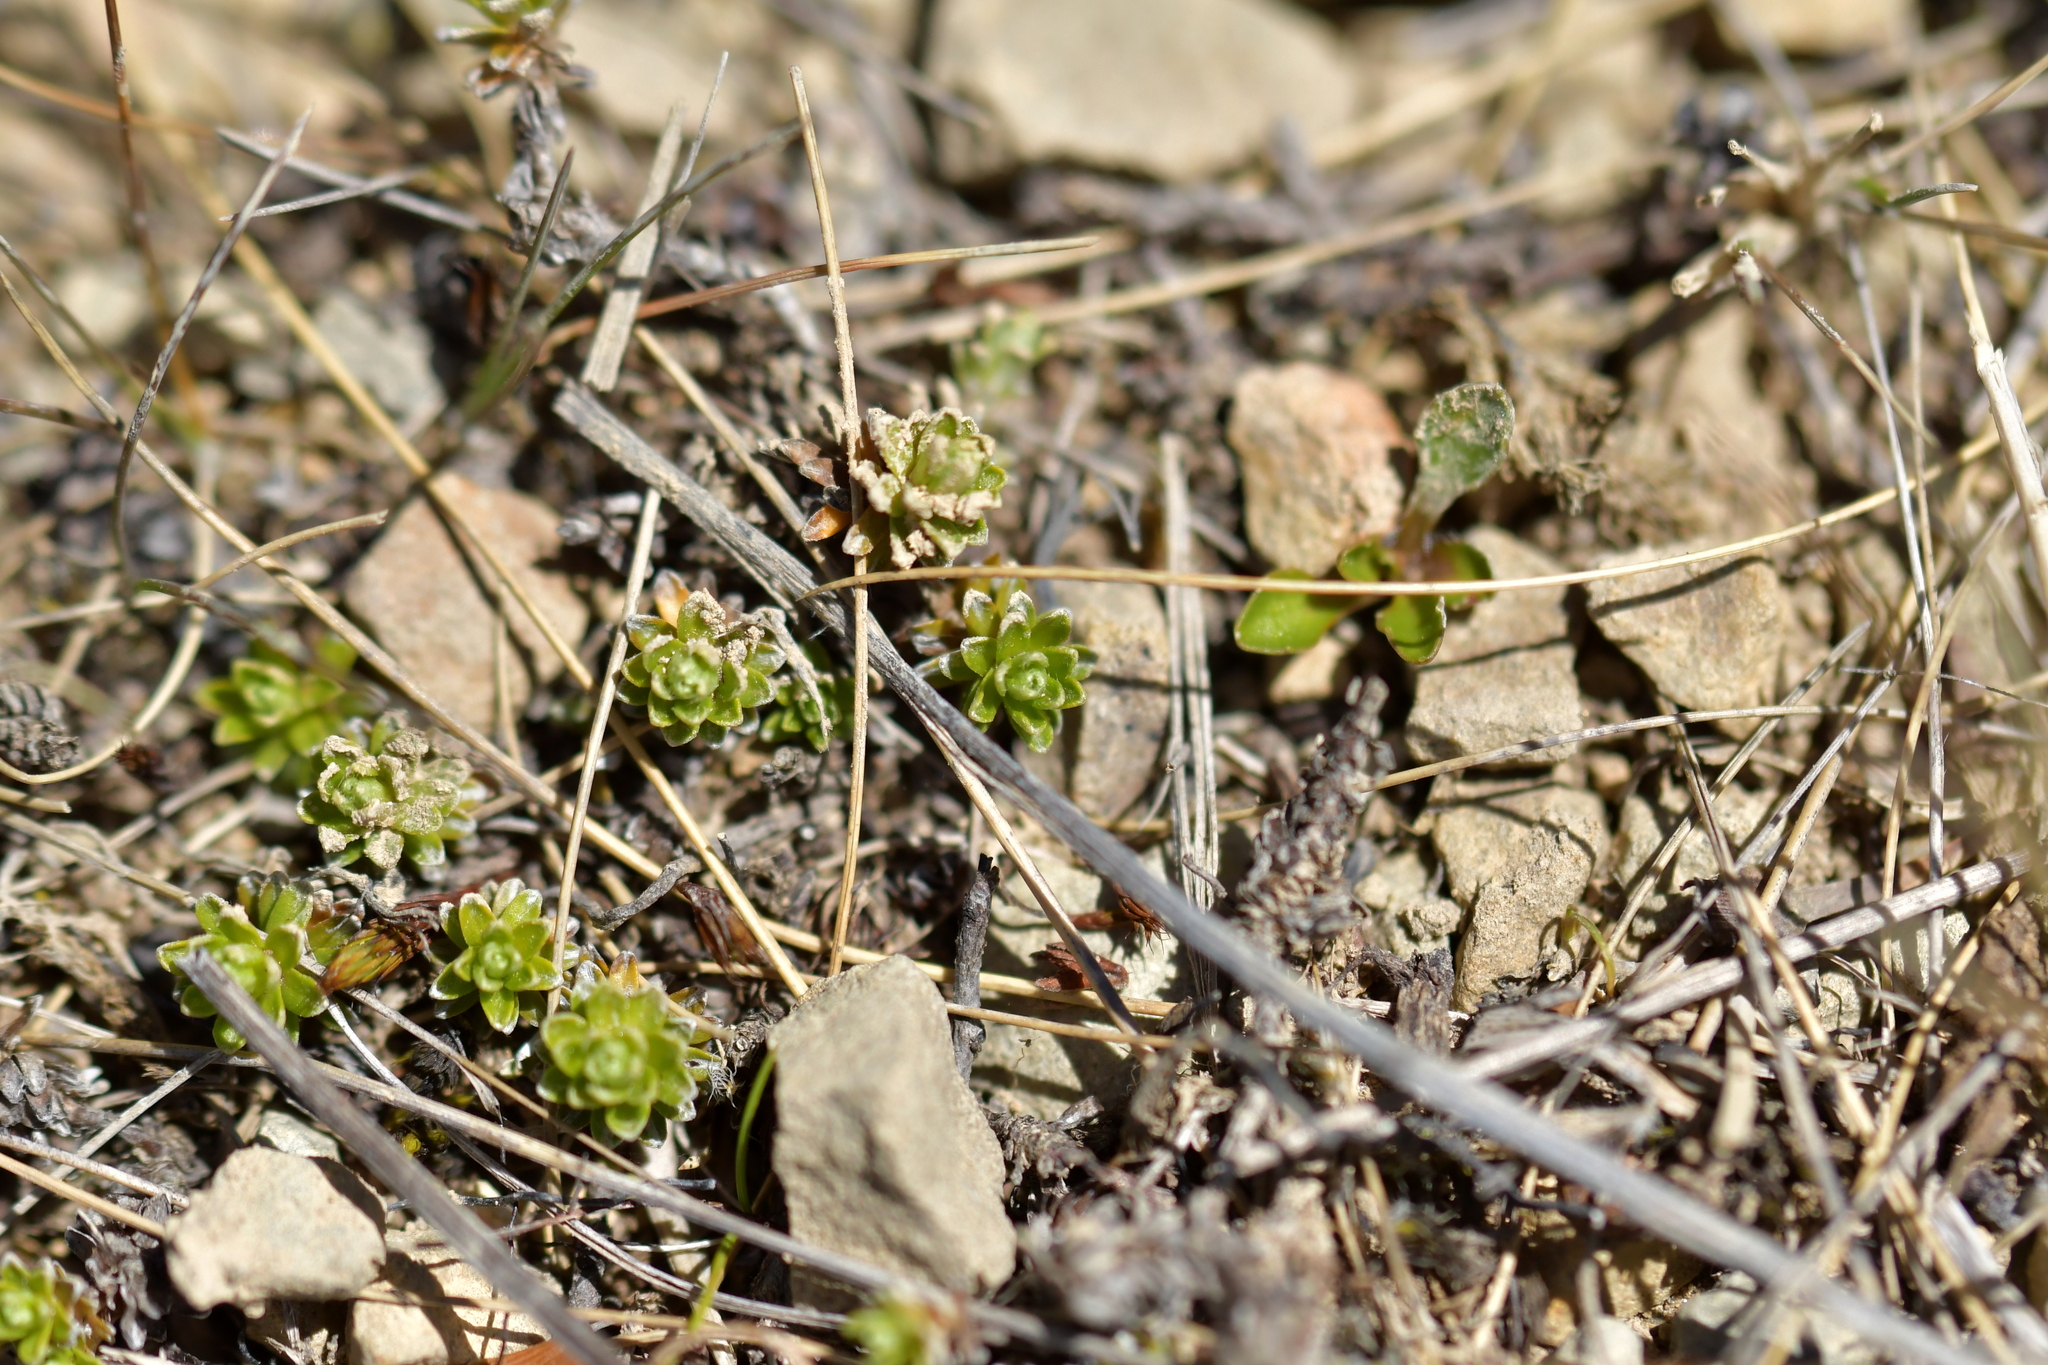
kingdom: Plantae
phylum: Tracheophyta
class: Magnoliopsida
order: Asterales
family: Asteraceae
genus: Raoulia
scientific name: Raoulia subsericea
